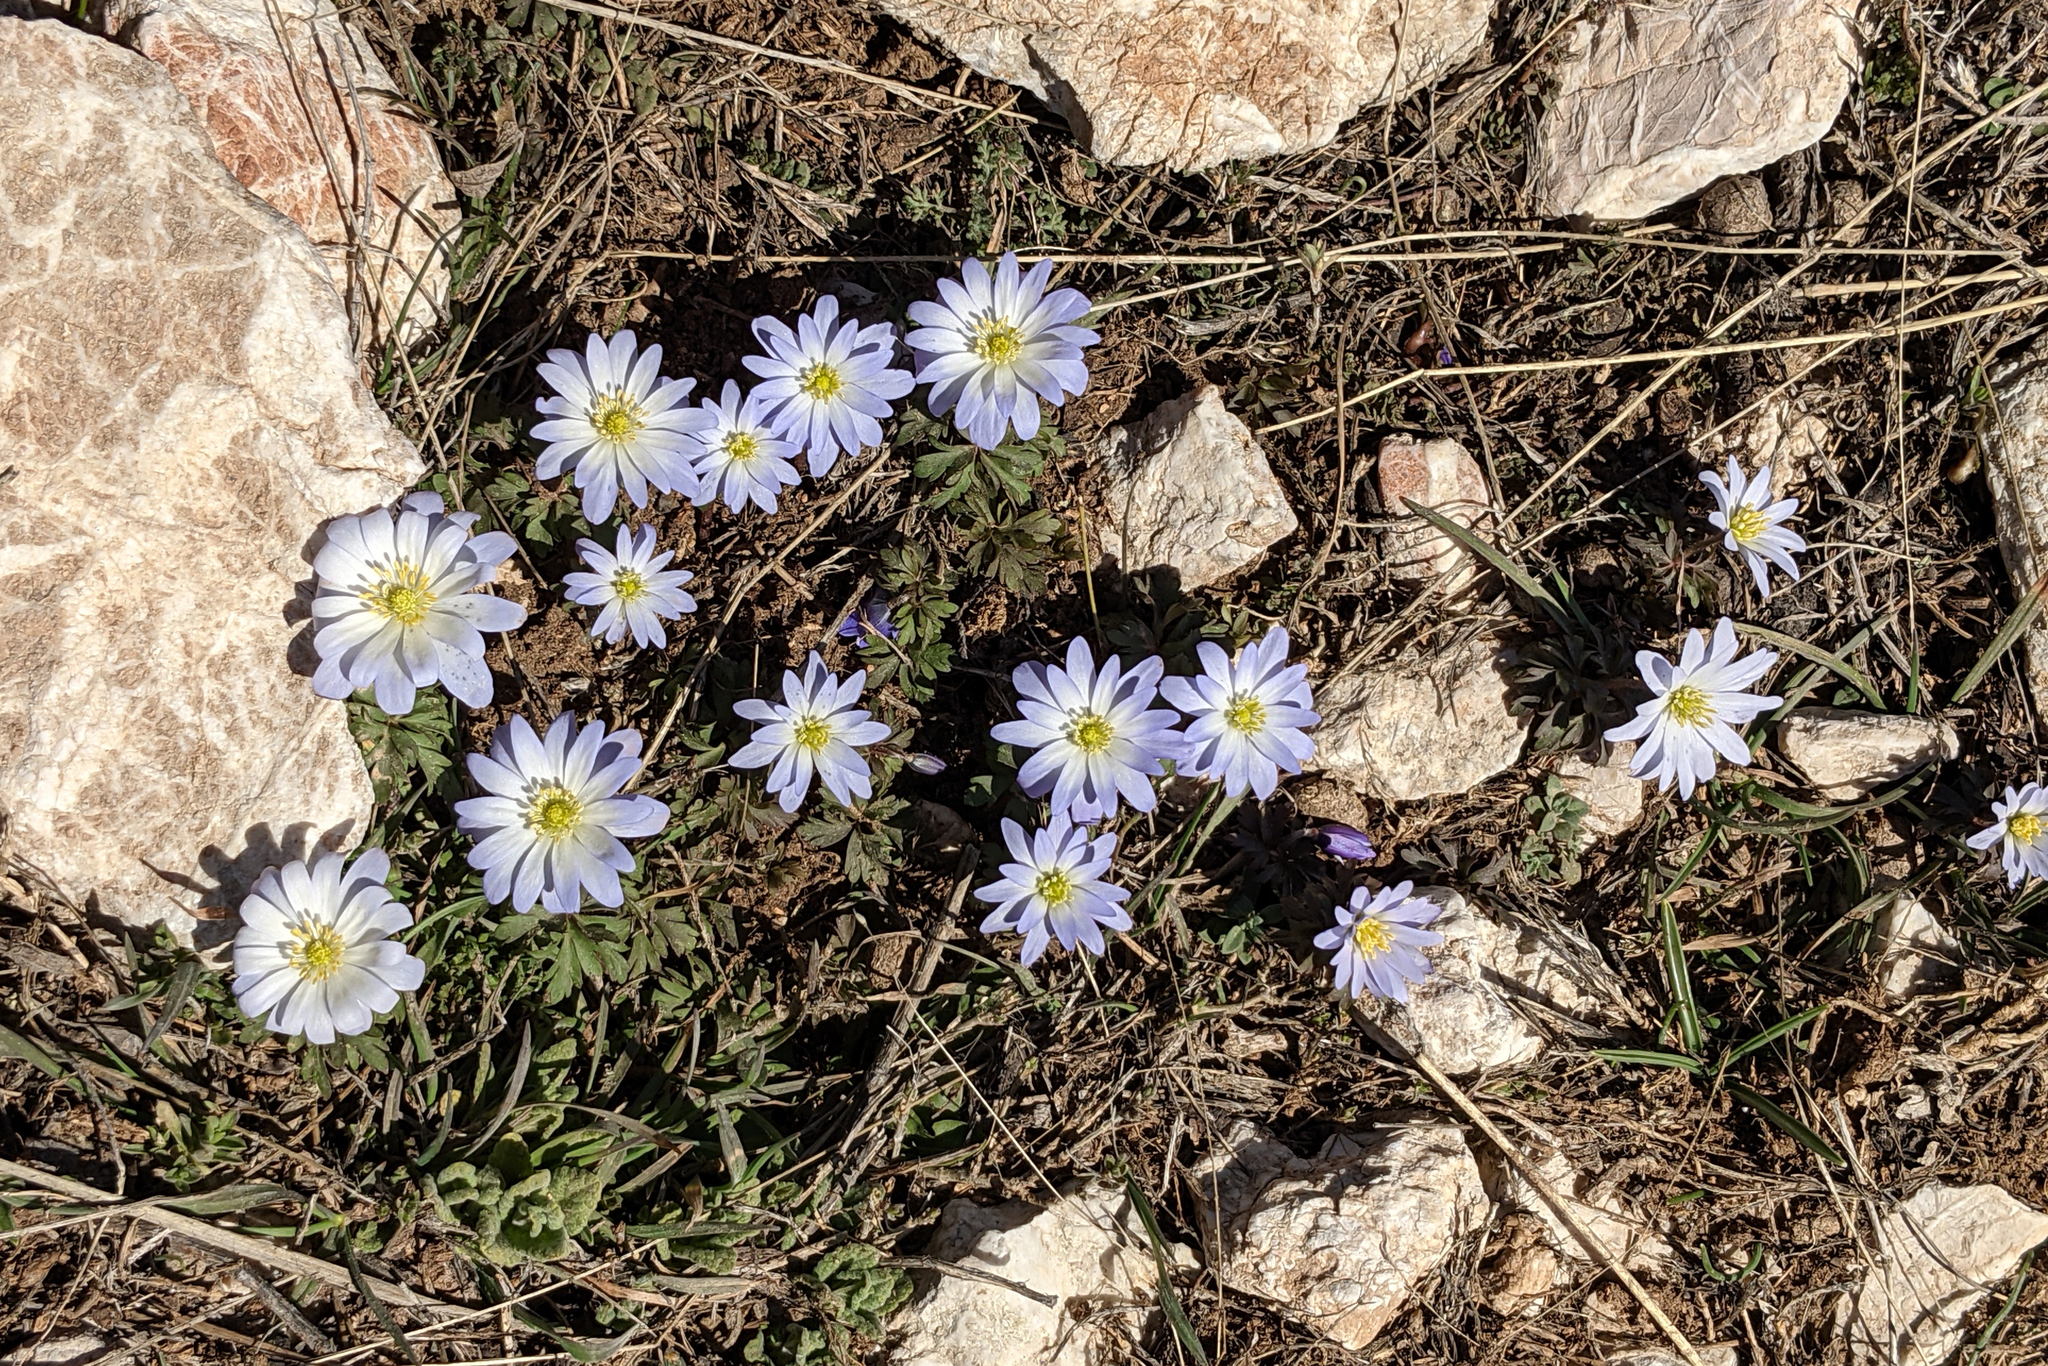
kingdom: Plantae
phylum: Tracheophyta
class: Magnoliopsida
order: Ranunculales
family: Ranunculaceae
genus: Anemone
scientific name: Anemone blanda
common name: Balkan anemone
